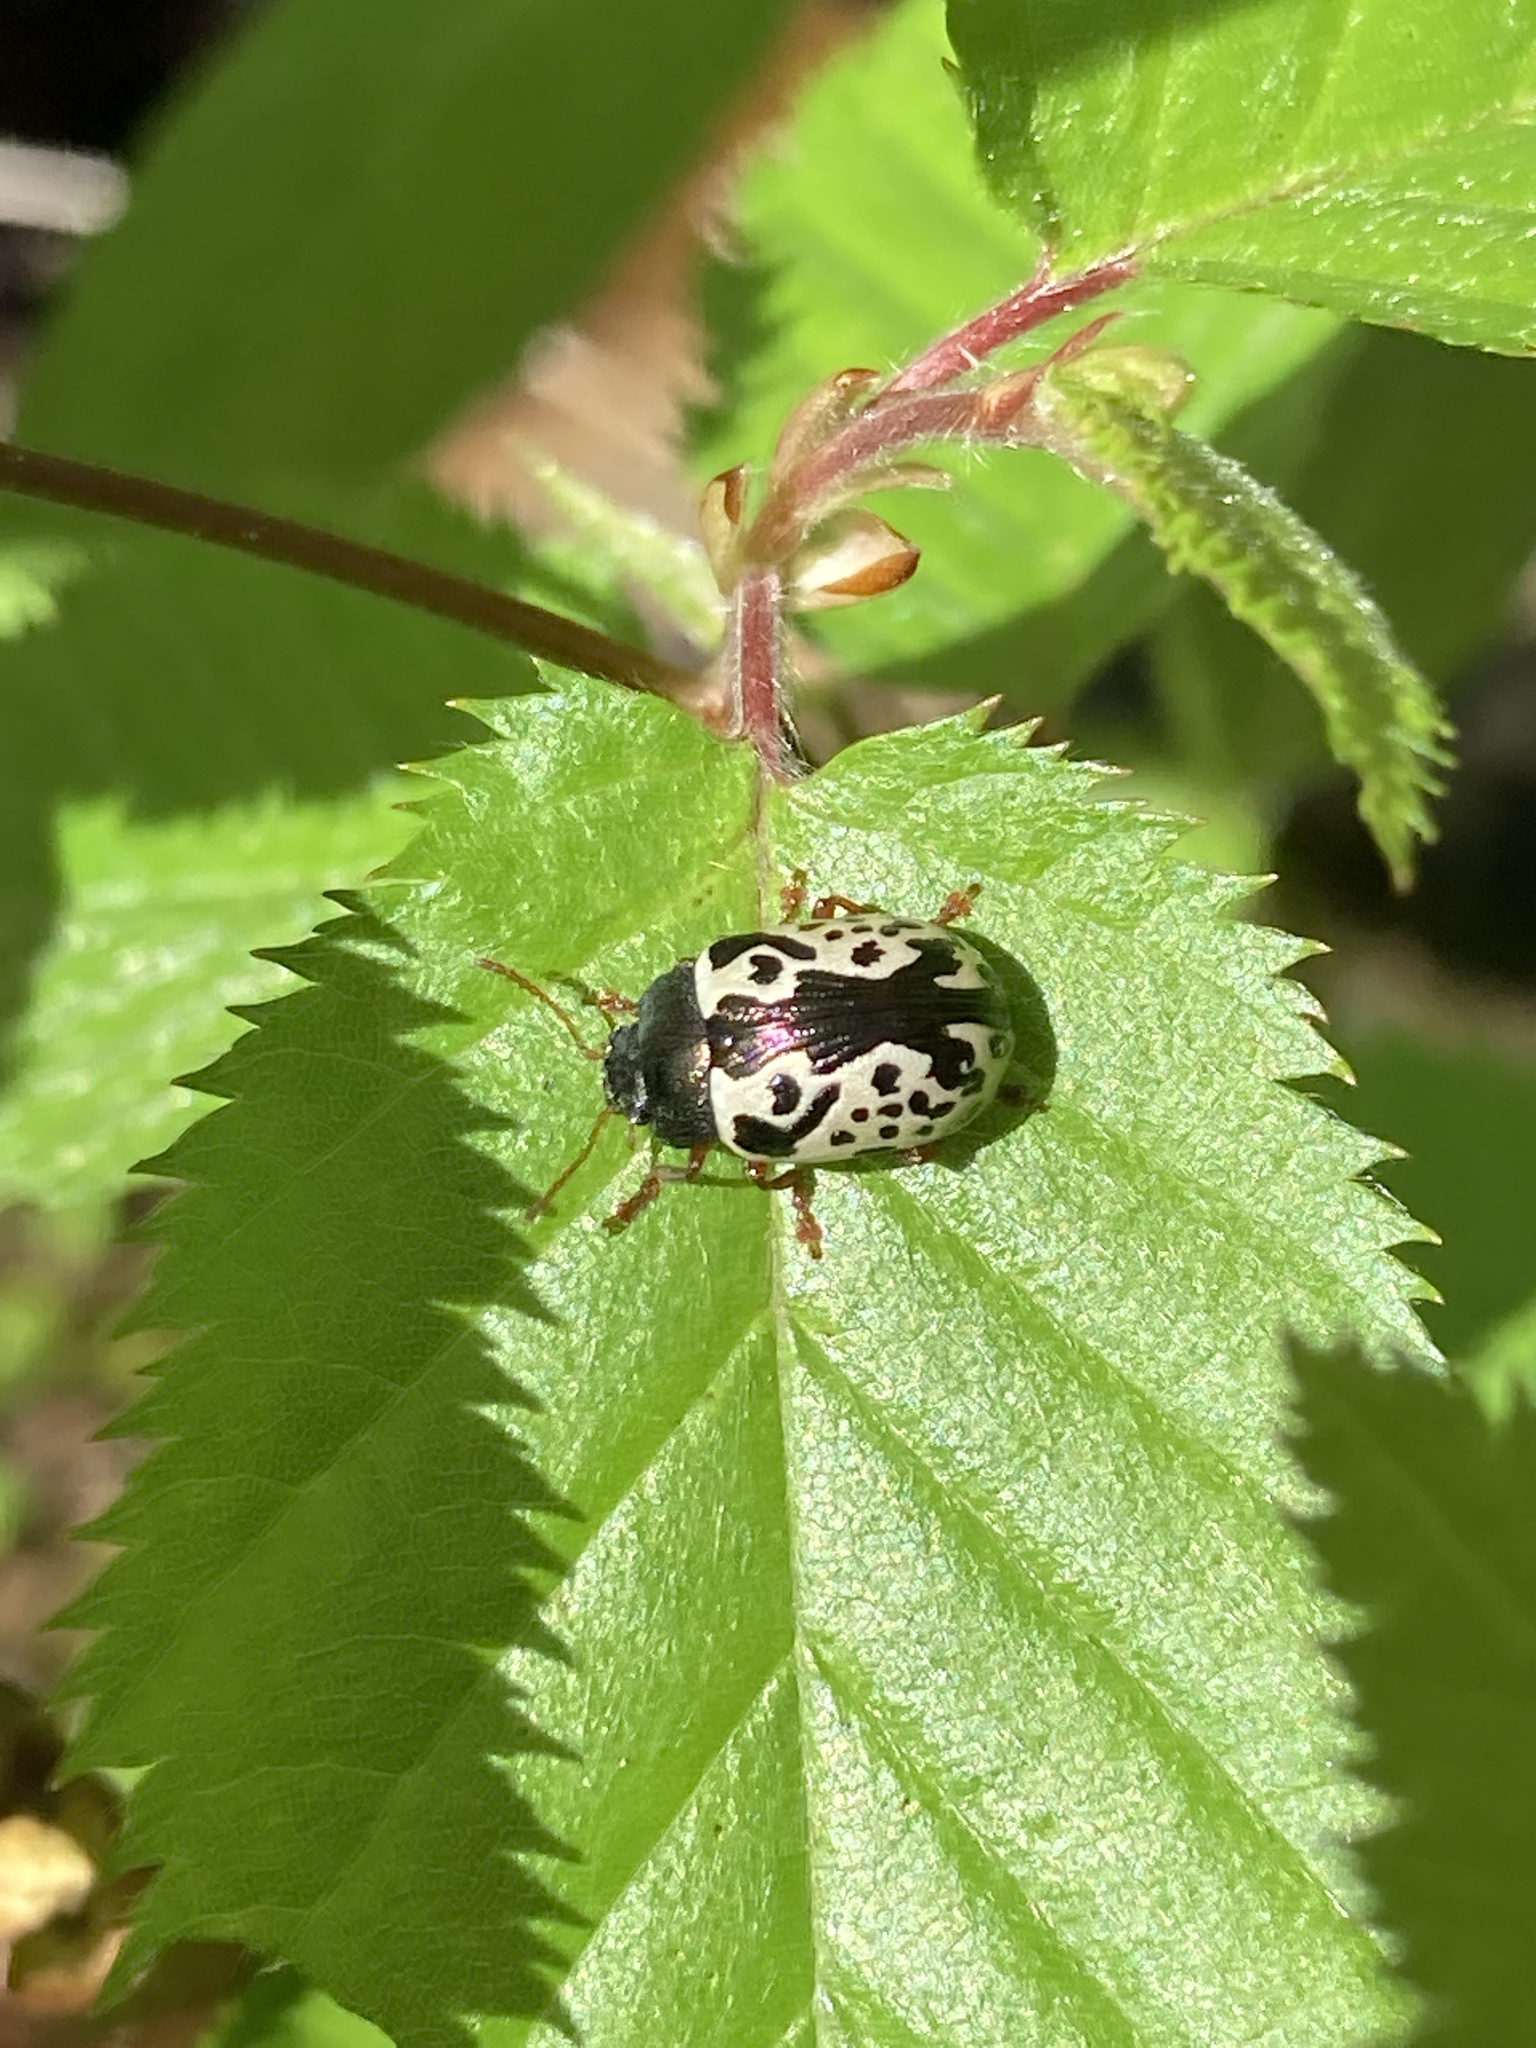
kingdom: Animalia
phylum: Arthropoda
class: Insecta
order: Coleoptera
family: Chrysomelidae
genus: Calligrapha
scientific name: Calligrapha confluens
